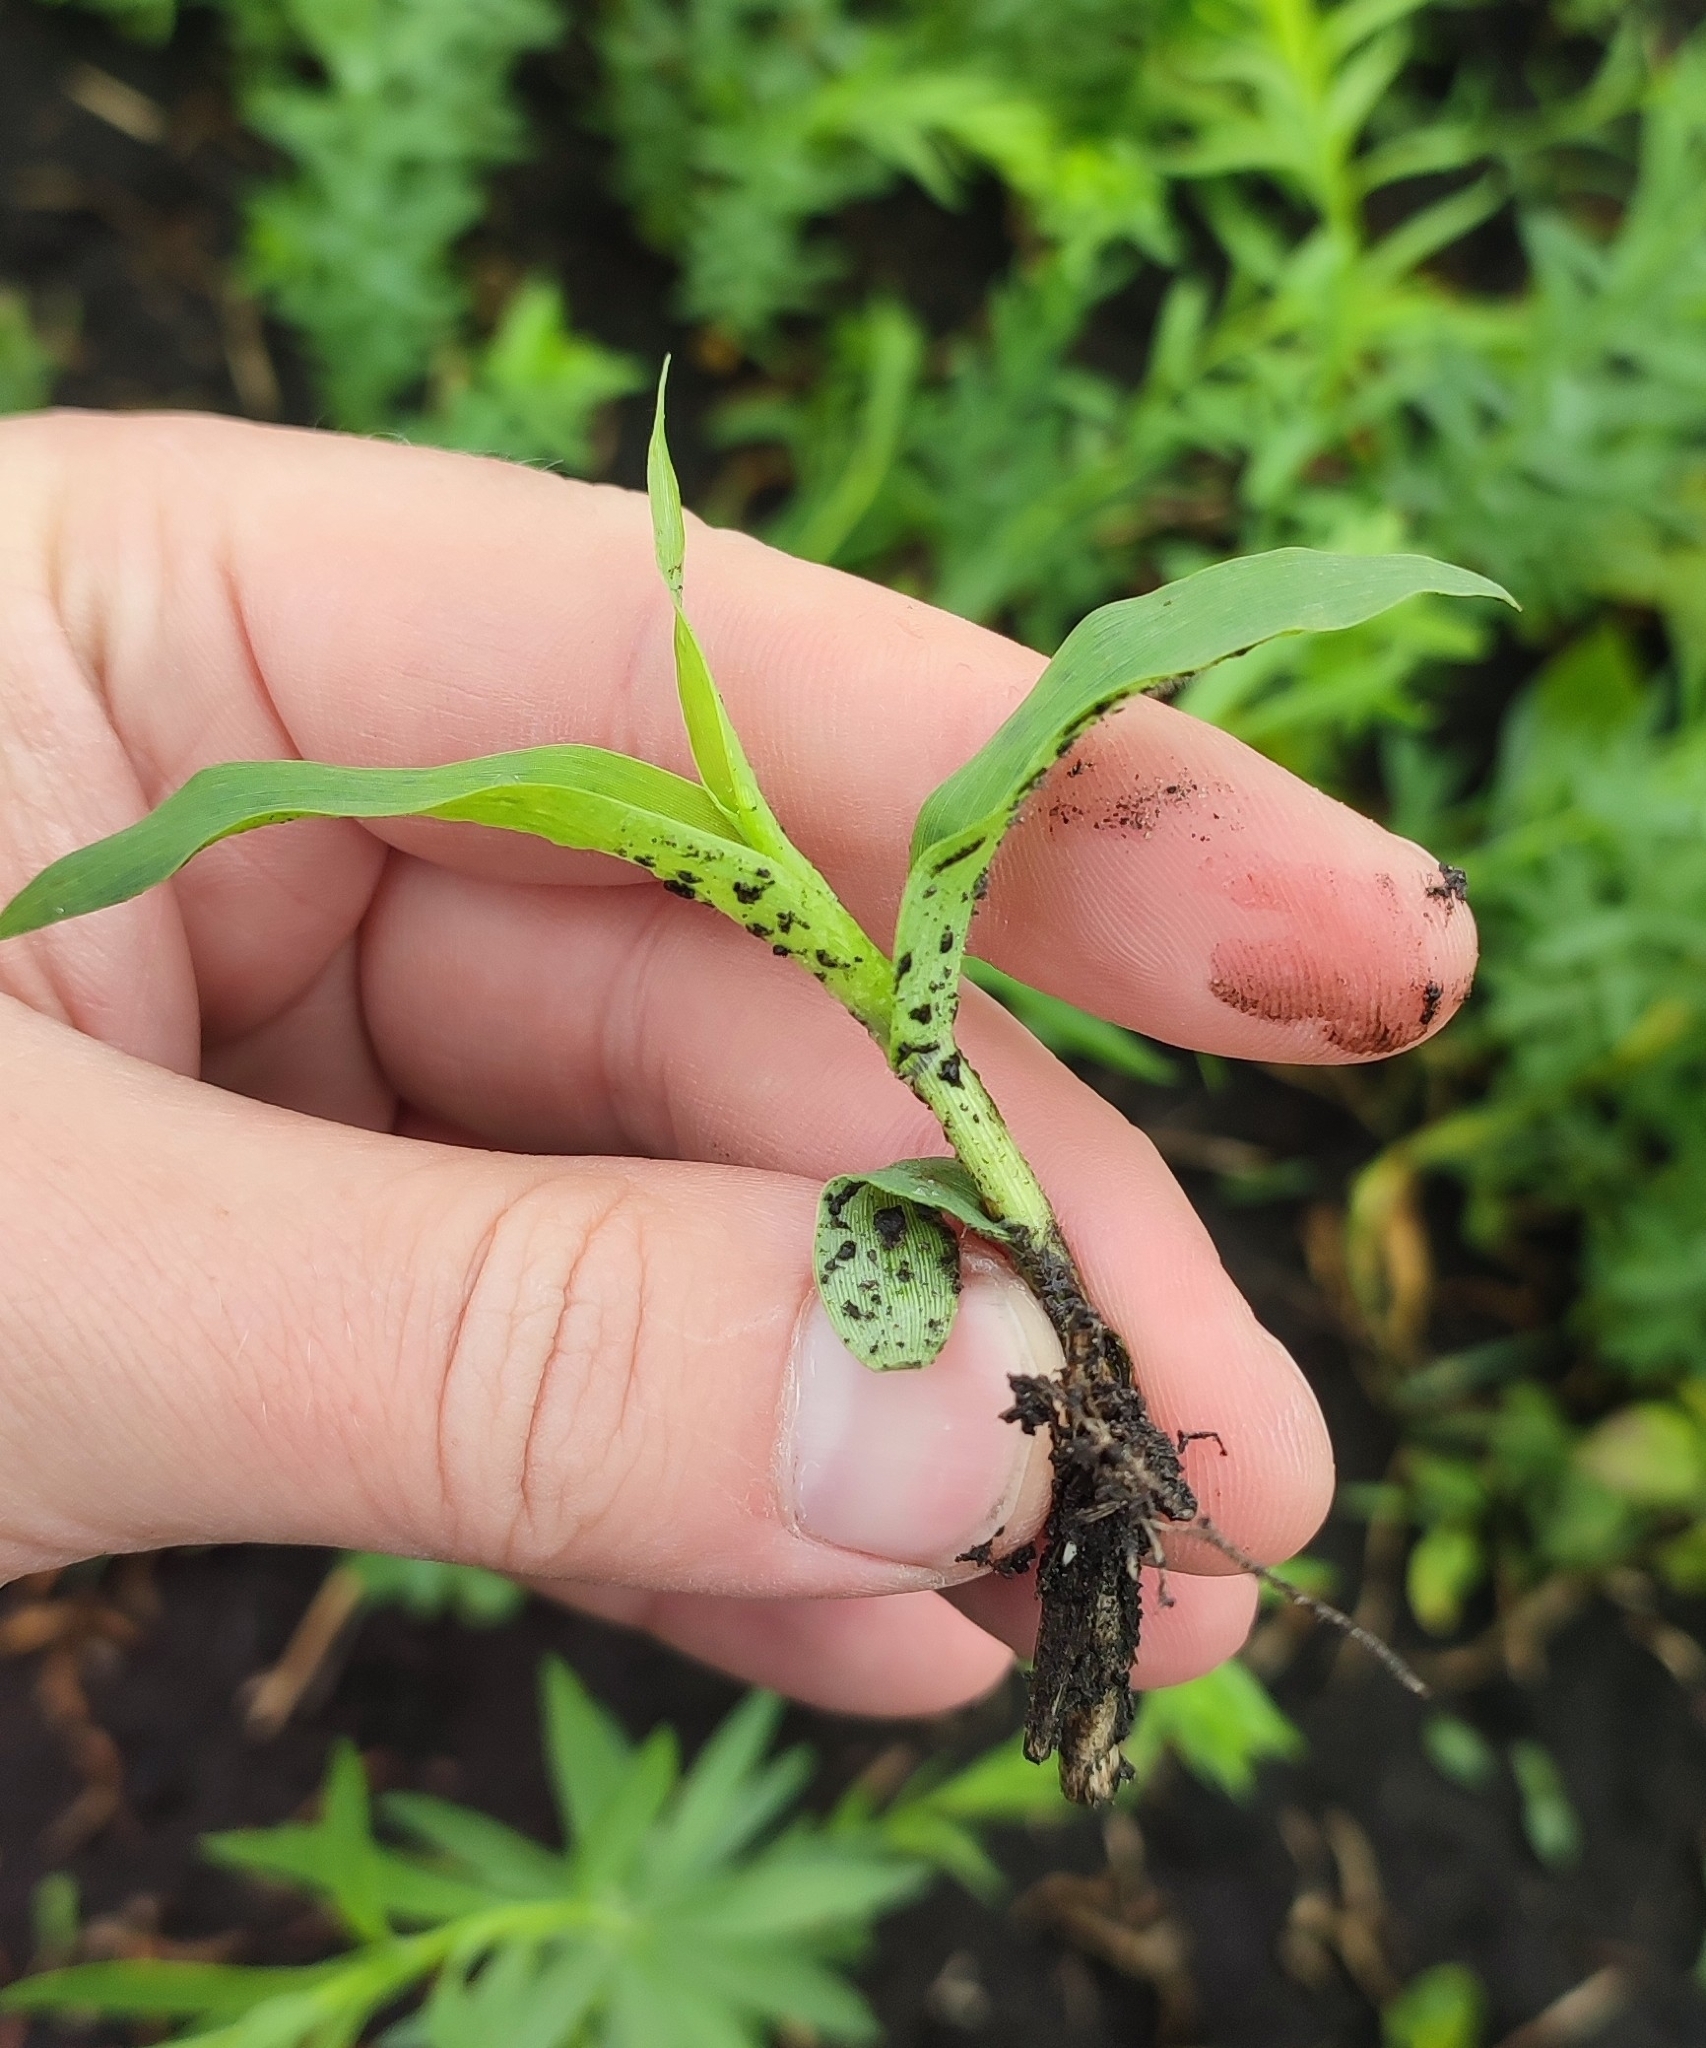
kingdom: Plantae
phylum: Tracheophyta
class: Liliopsida
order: Poales
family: Poaceae
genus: Panicum
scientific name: Panicum miliaceum
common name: Common millet
